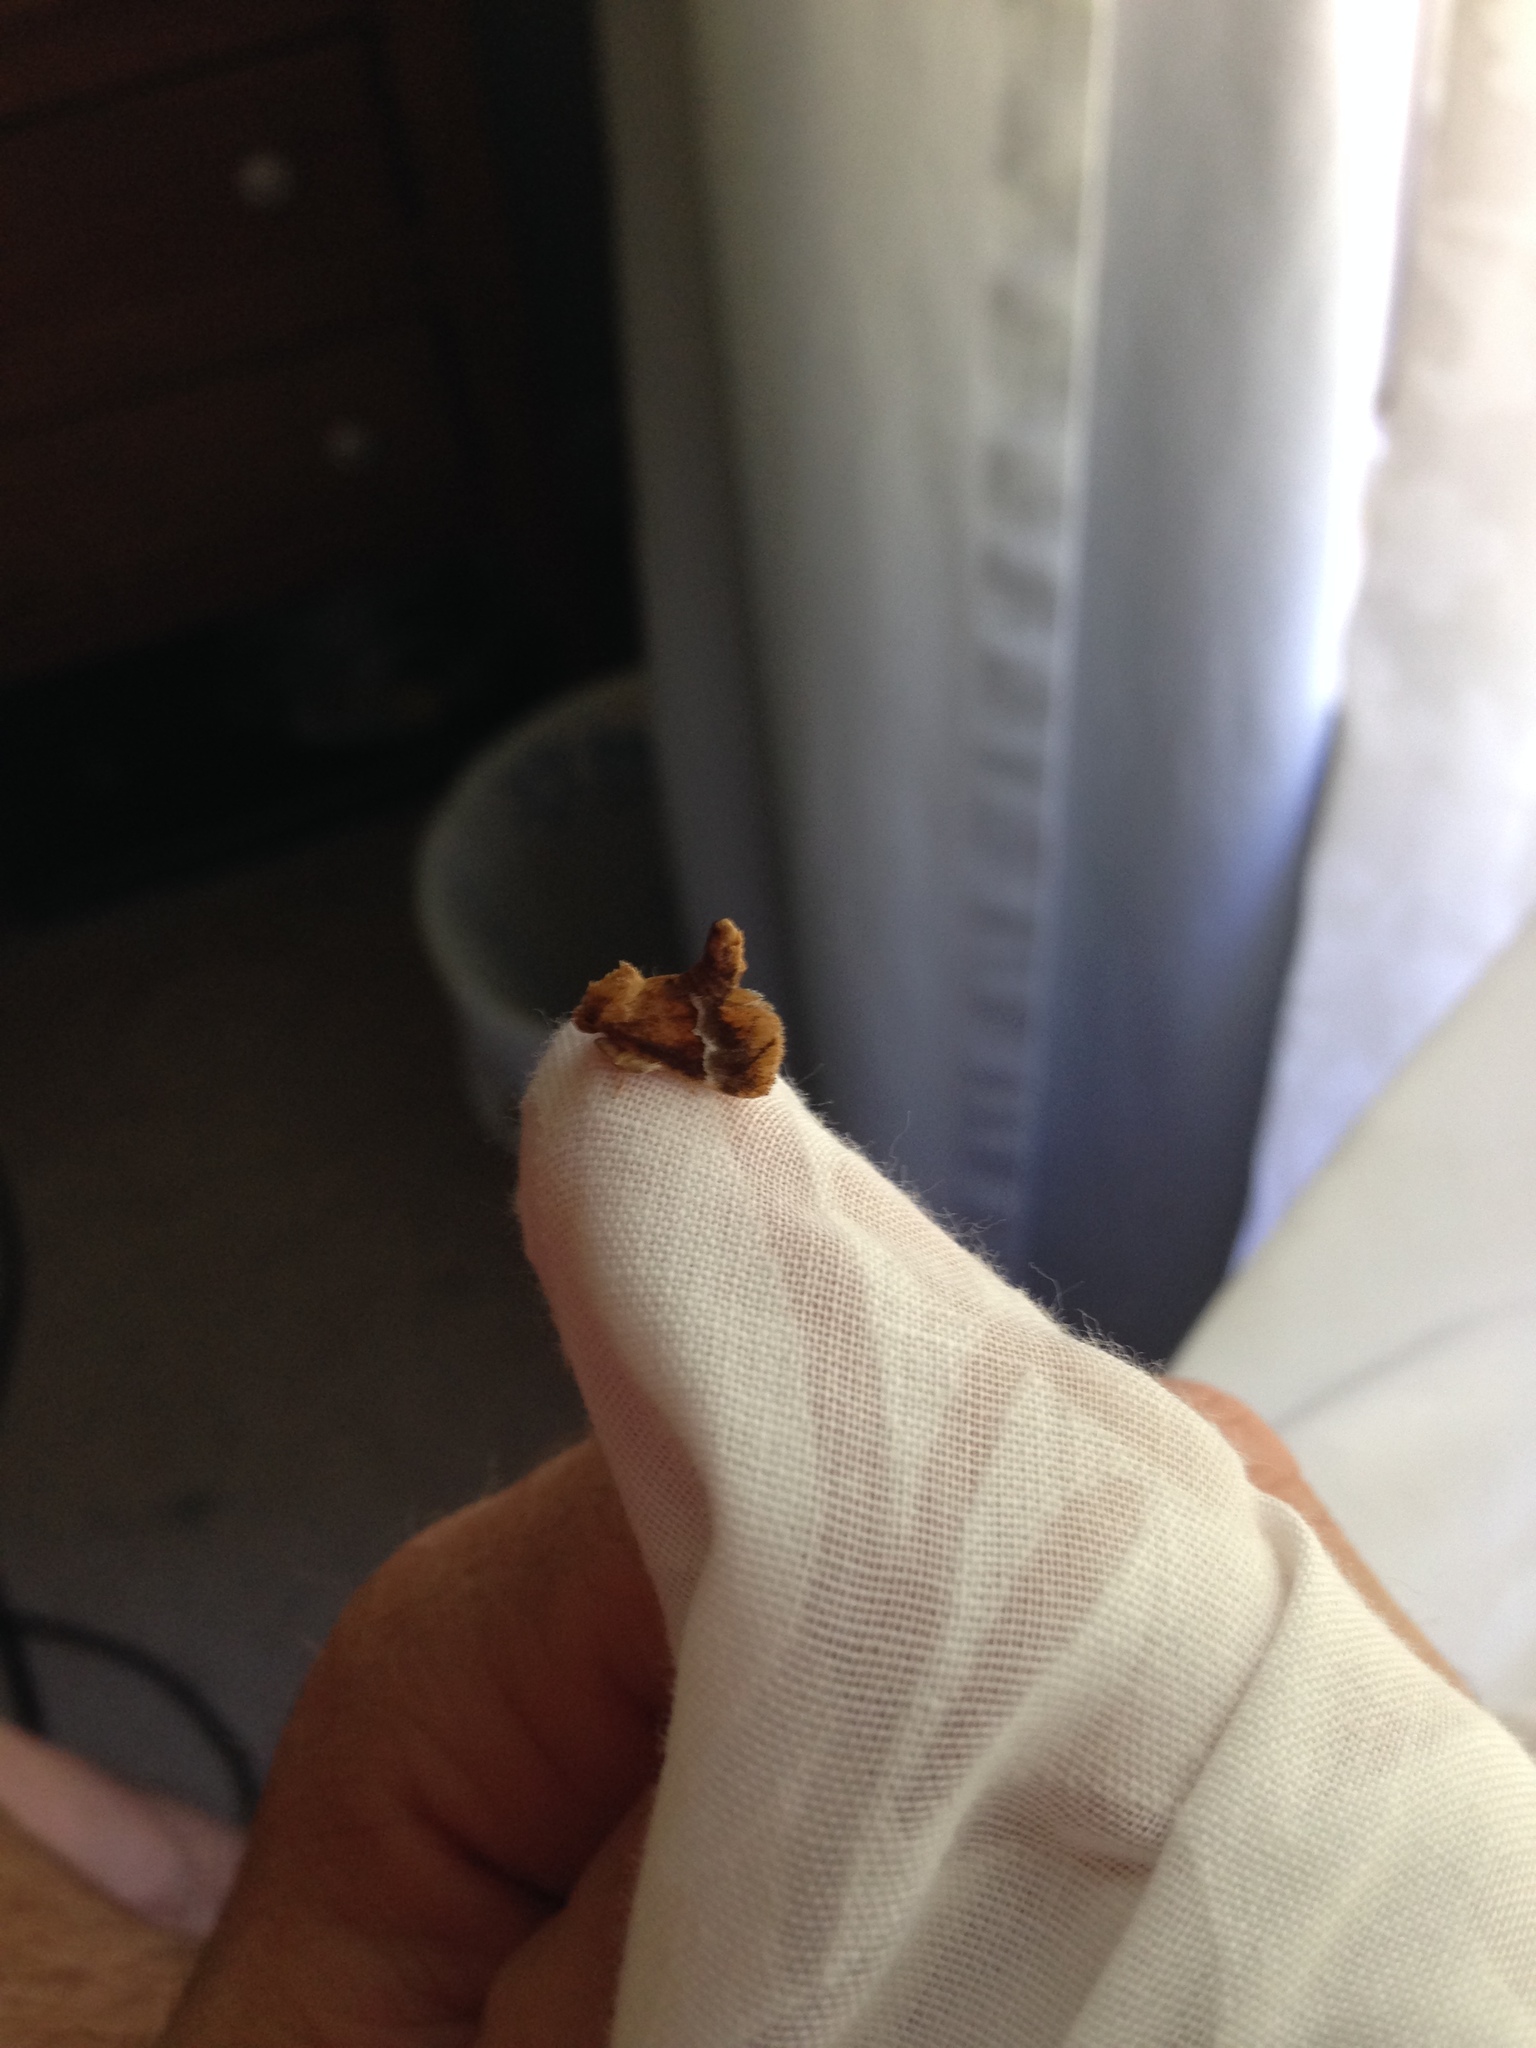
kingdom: Animalia
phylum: Arthropoda
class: Insecta
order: Lepidoptera
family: Limacodidae
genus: Lithacodes
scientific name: Lithacodes fasciola
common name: Yellow-shouldered slug moth
